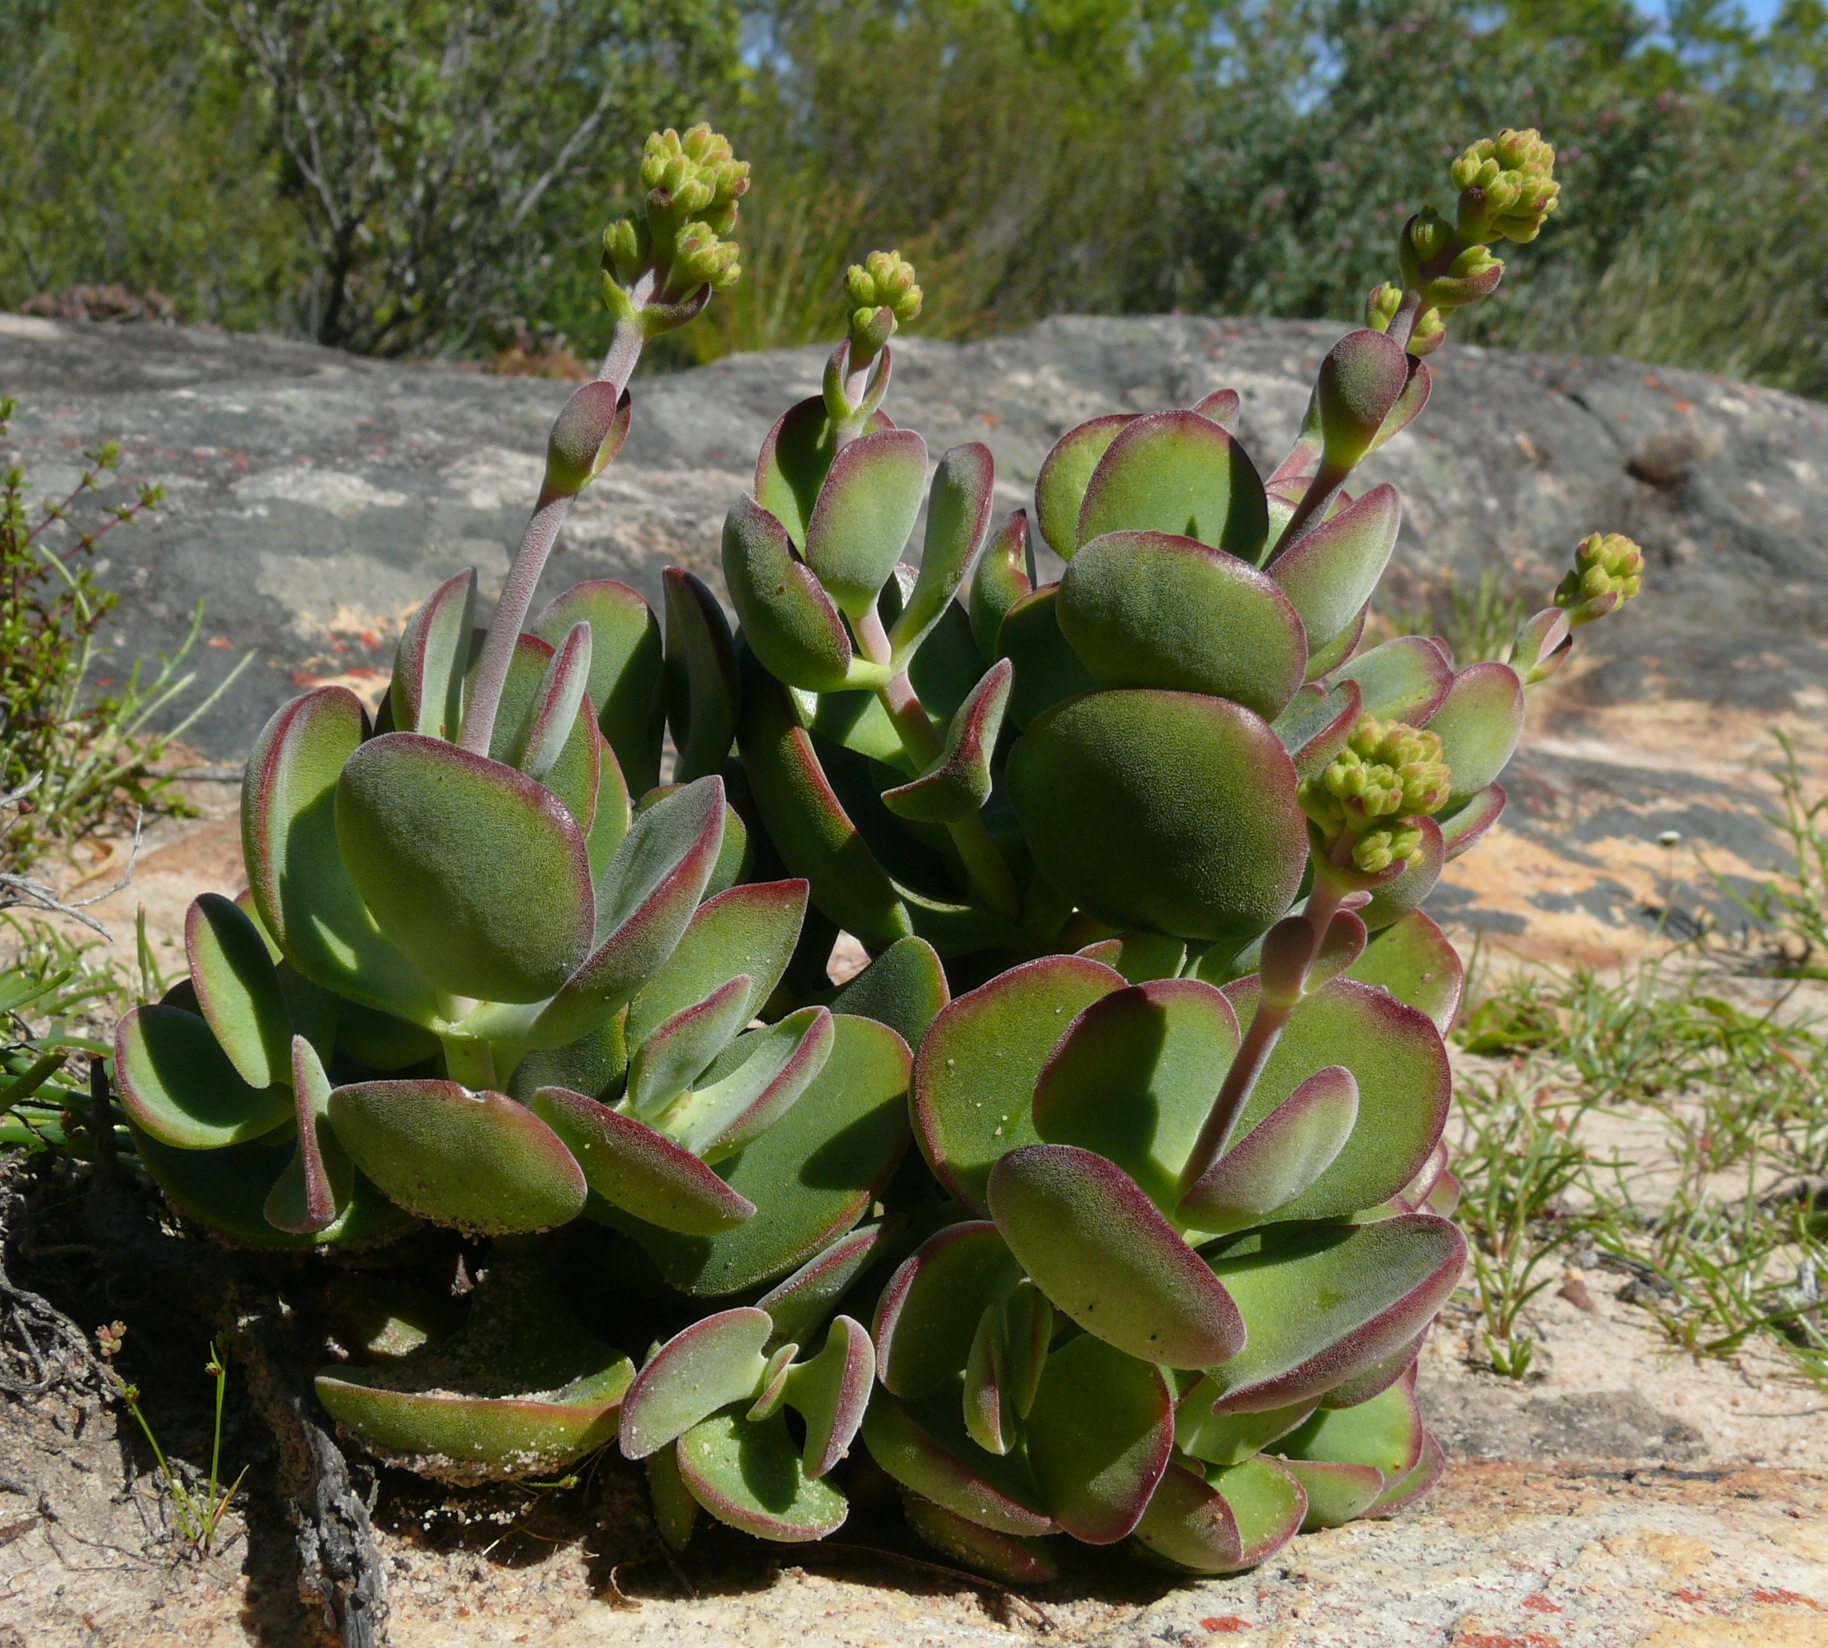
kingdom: Plantae
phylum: Tracheophyta
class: Magnoliopsida
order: Saxifragales
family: Crassulaceae
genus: Crassula
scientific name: Crassula atropurpurea
